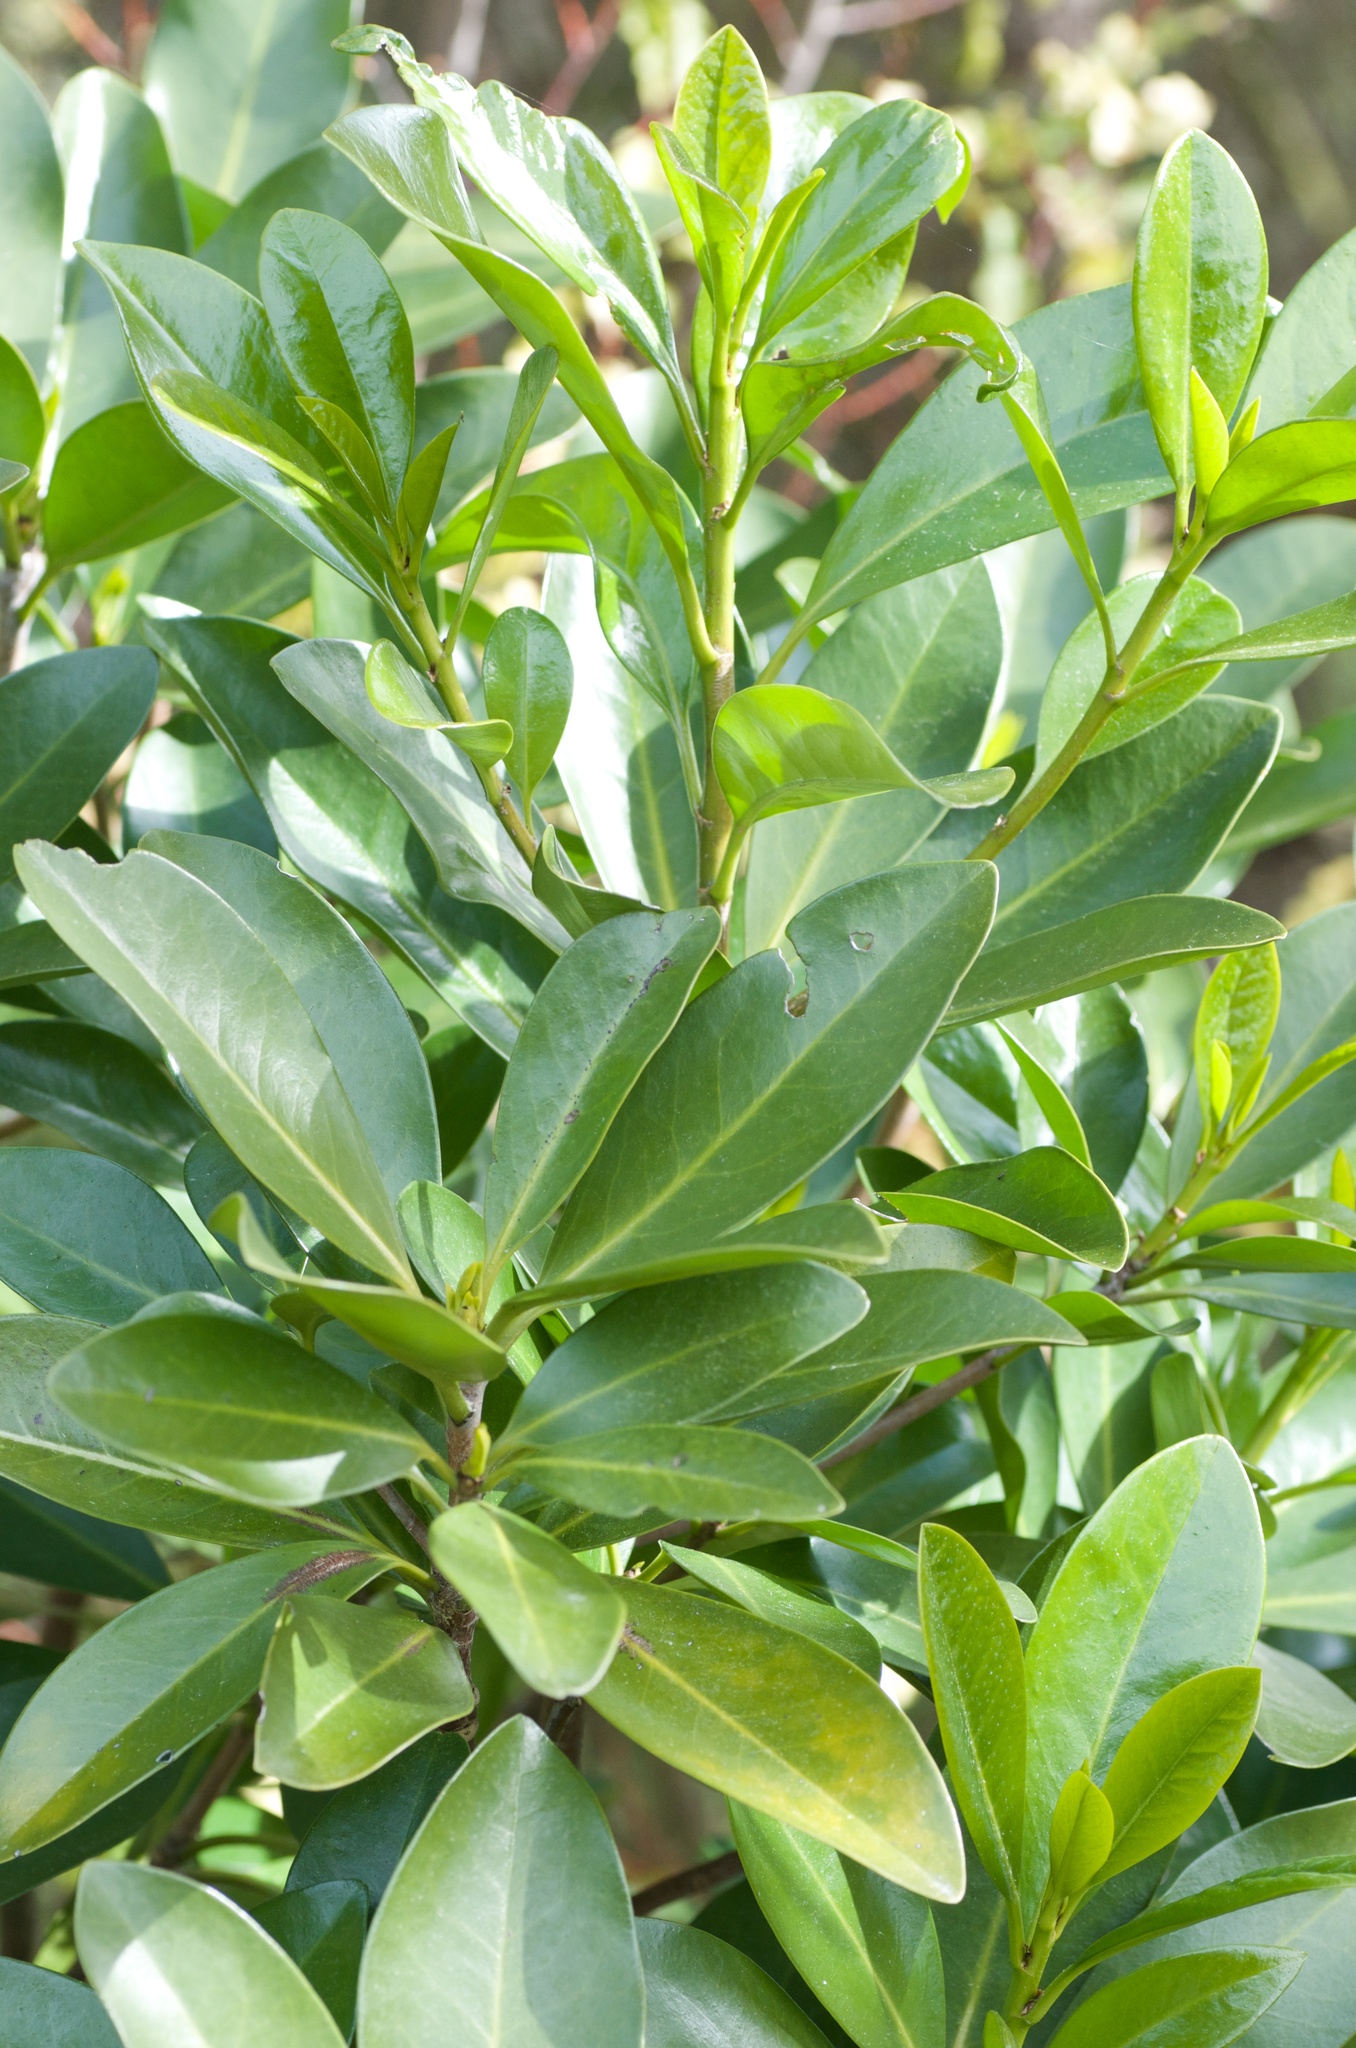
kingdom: Plantae
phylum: Tracheophyta
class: Magnoliopsida
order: Cucurbitales
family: Corynocarpaceae
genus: Corynocarpus
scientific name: Corynocarpus laevigatus
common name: New zealand laurel
